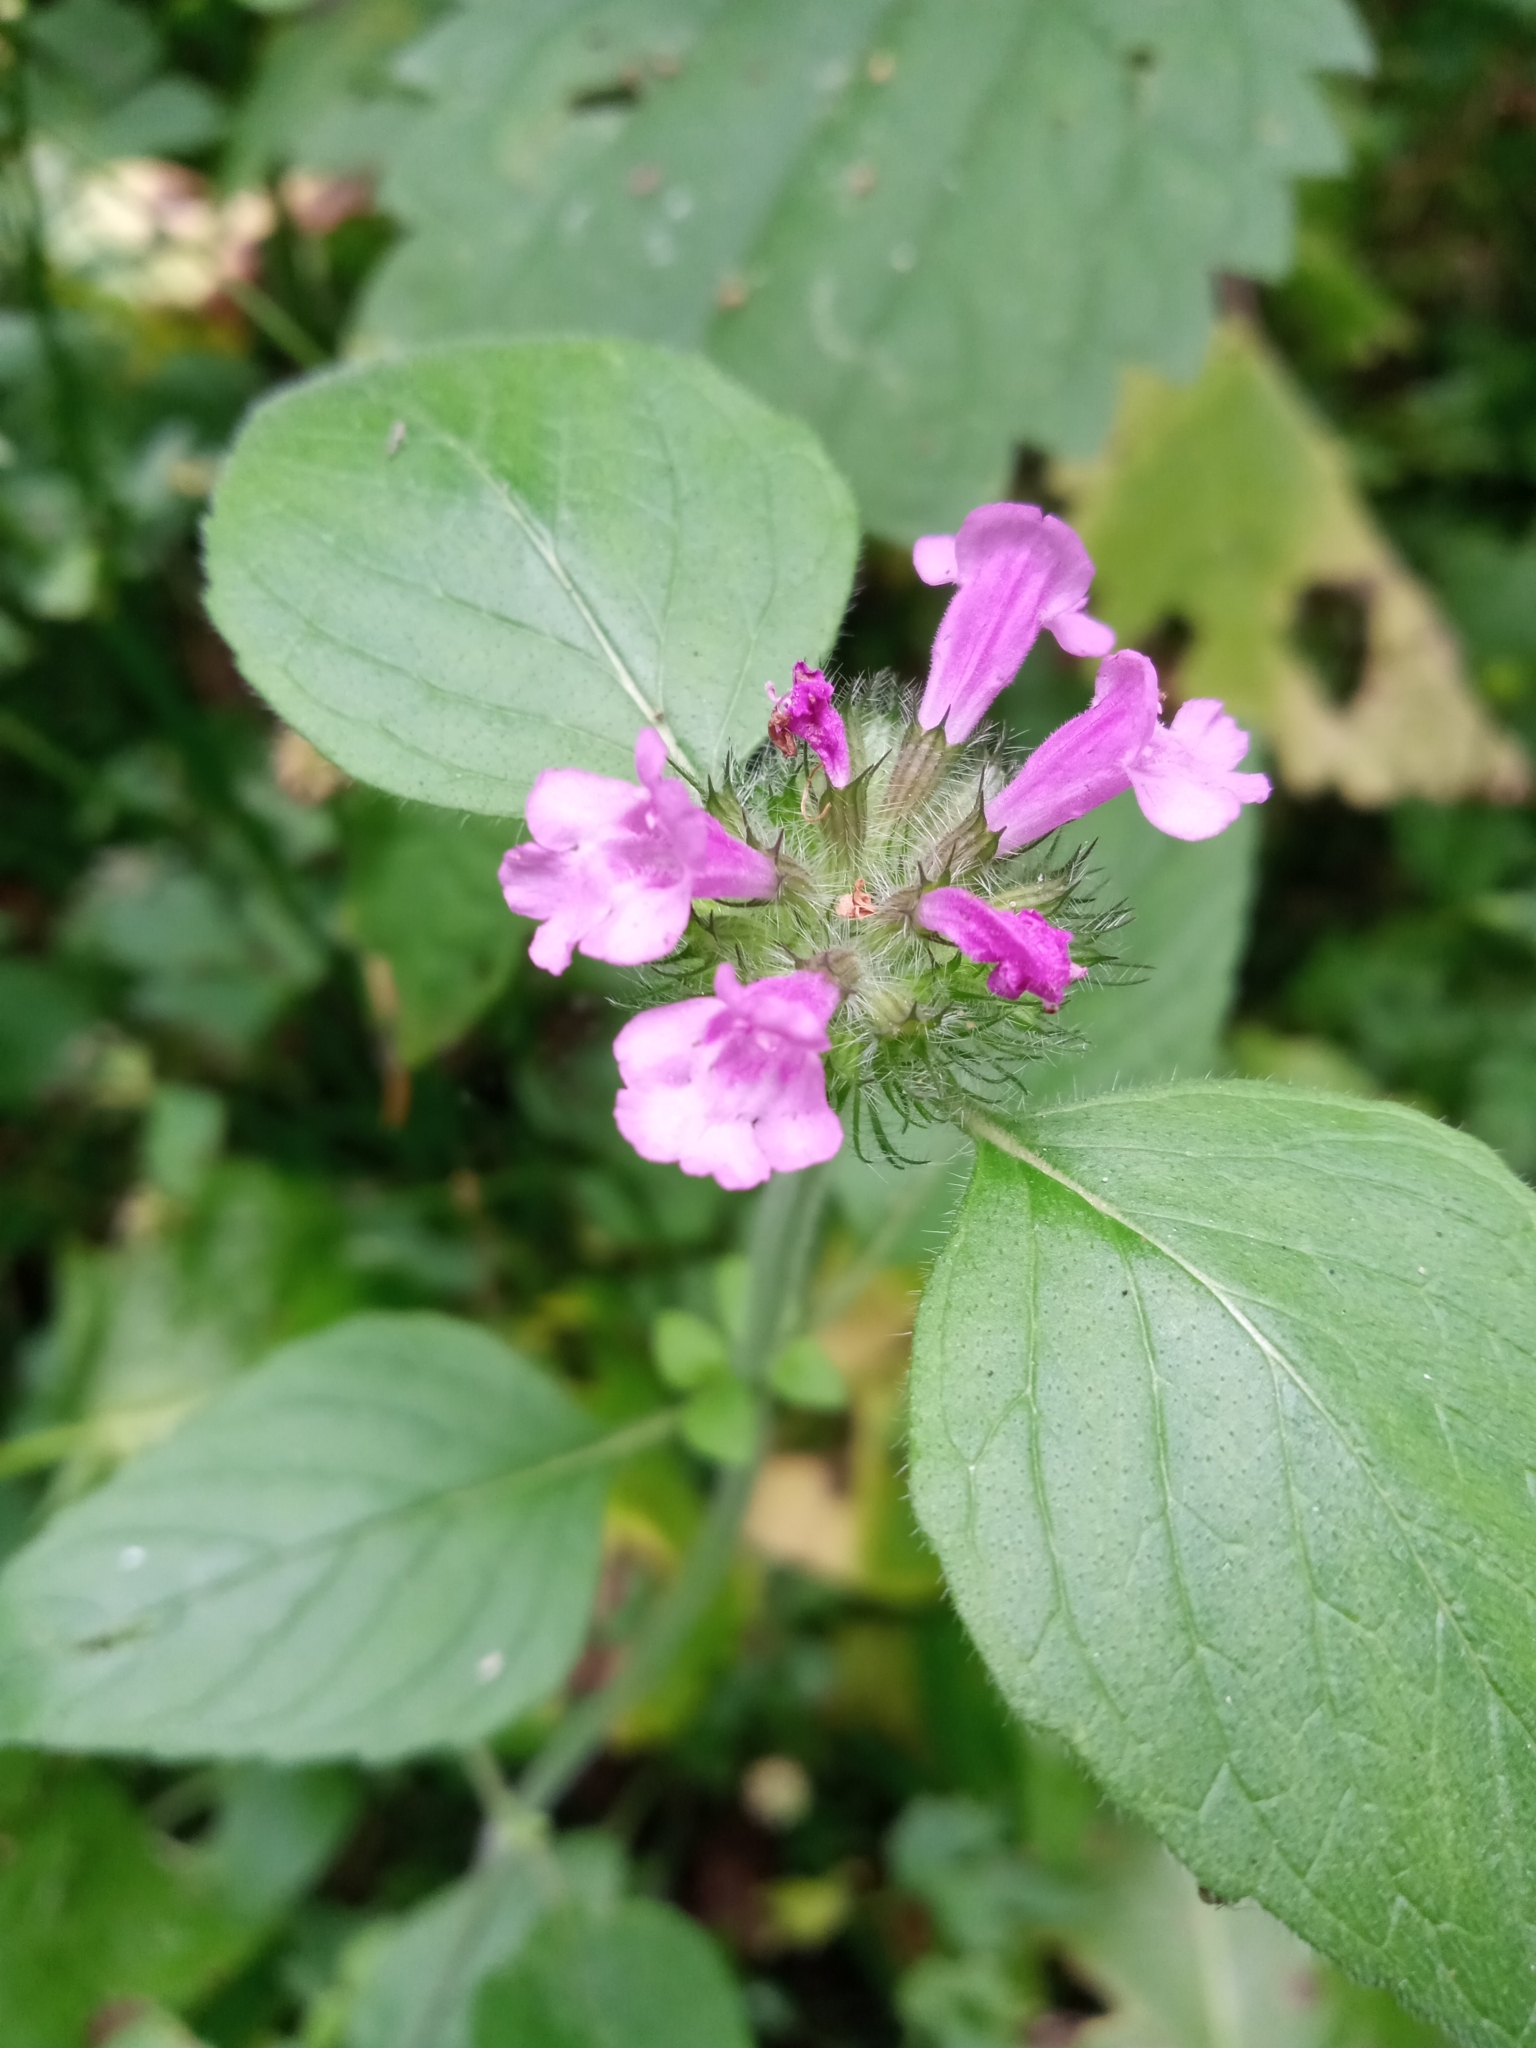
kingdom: Plantae
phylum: Tracheophyta
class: Magnoliopsida
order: Lamiales
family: Lamiaceae
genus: Clinopodium
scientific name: Clinopodium vulgare
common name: Wild basil
